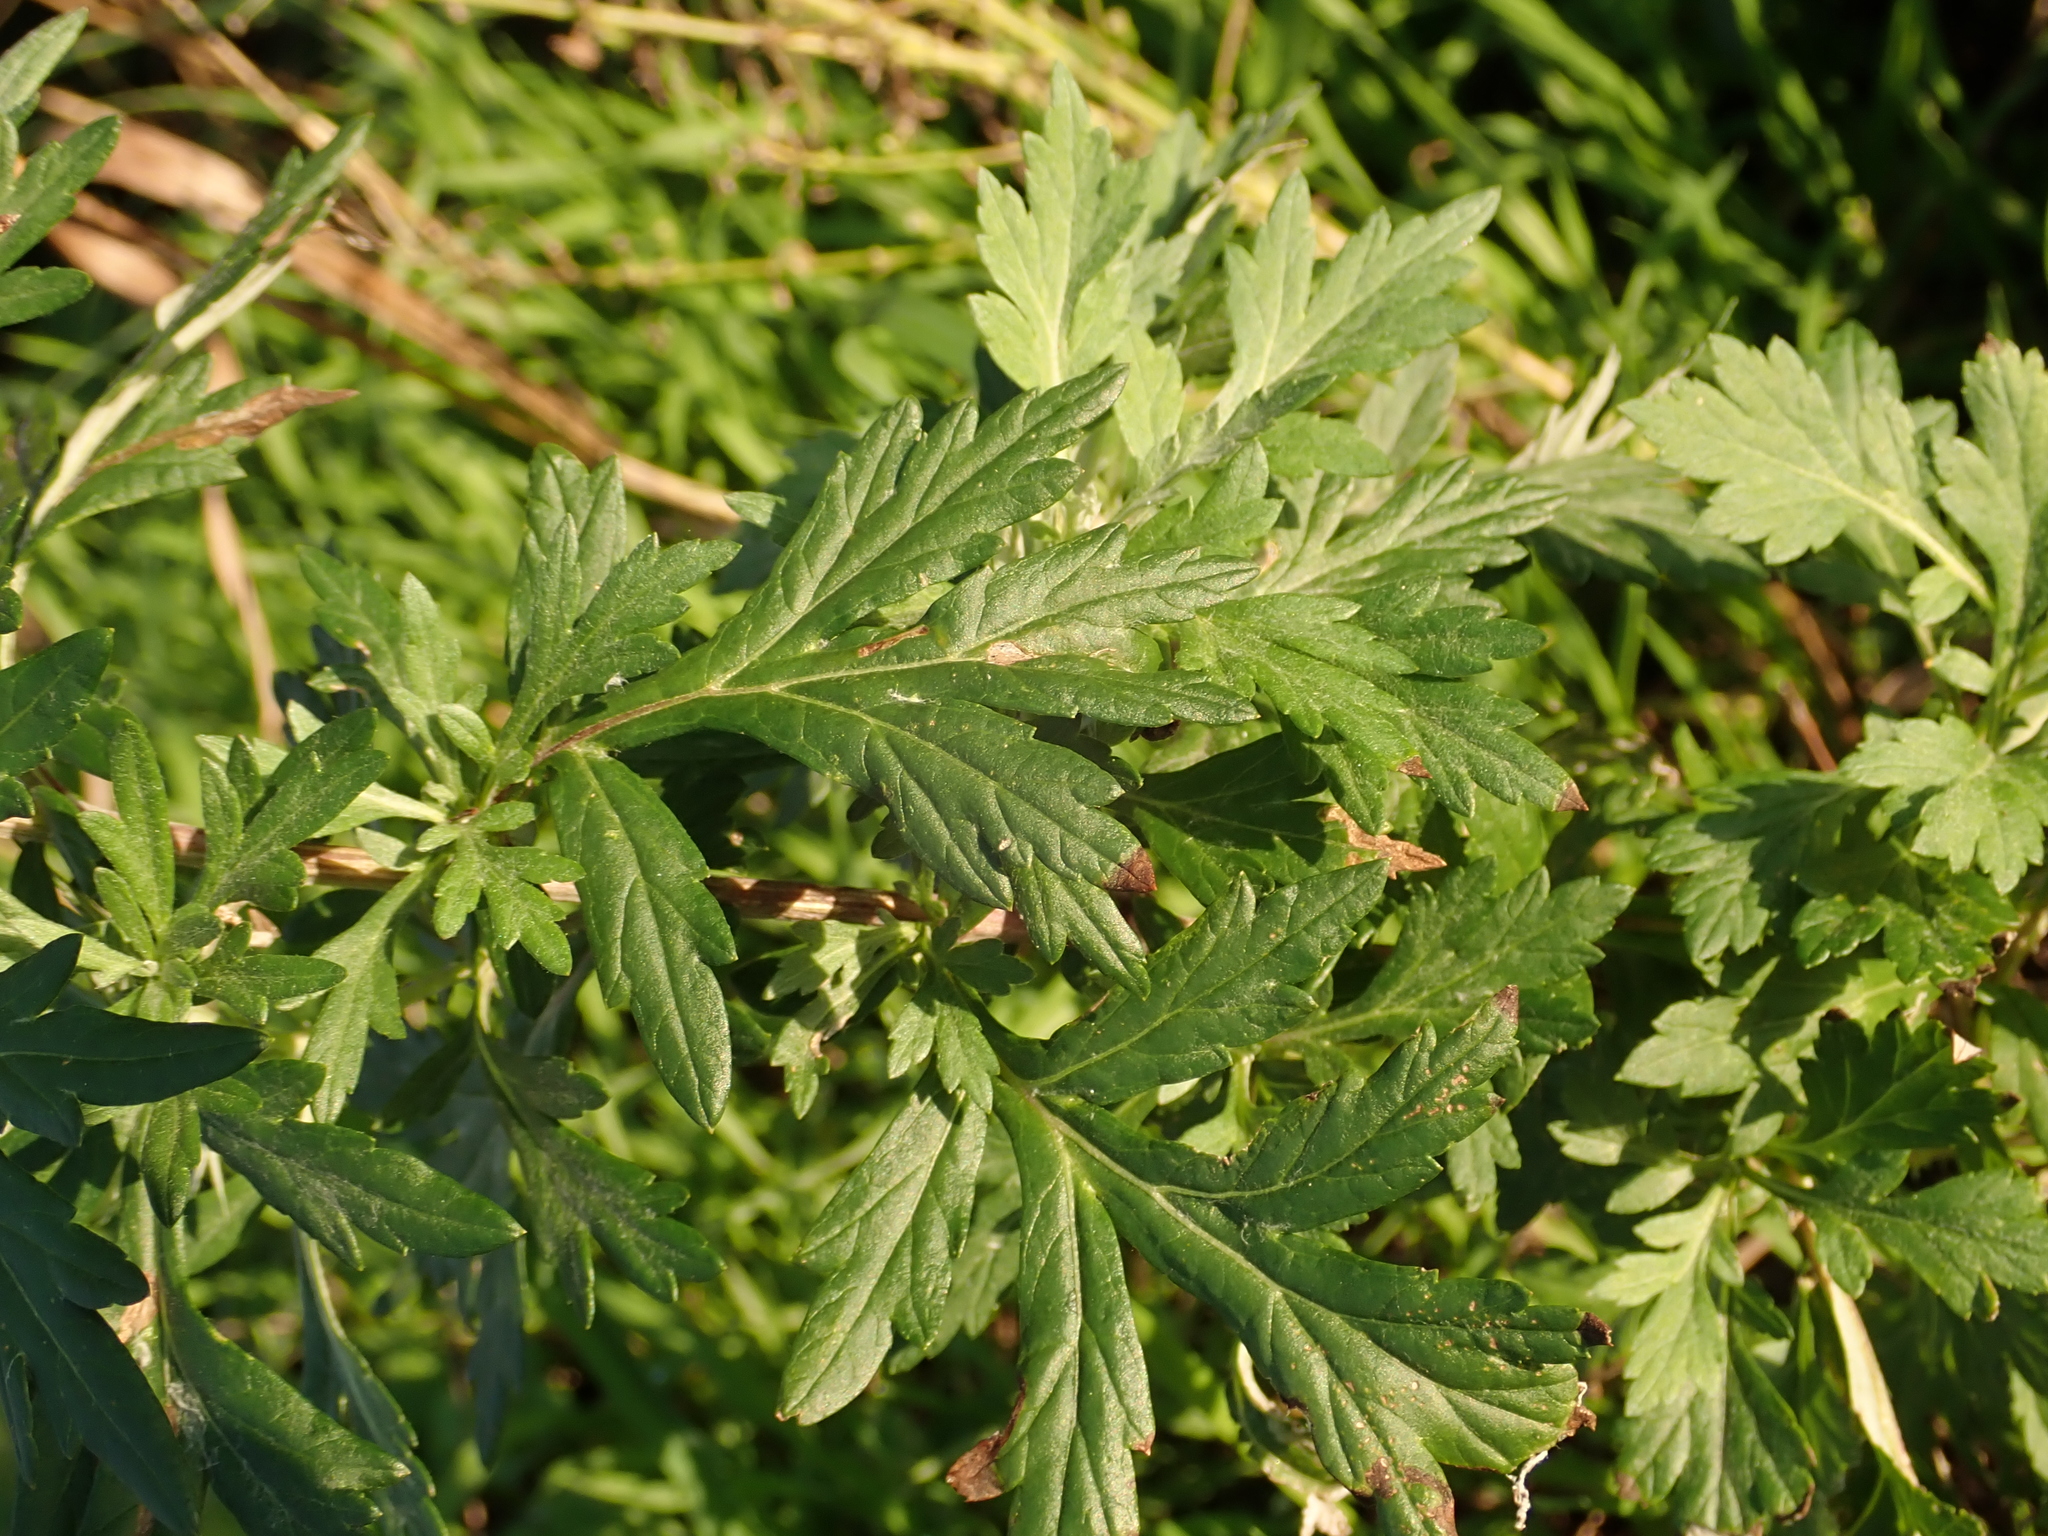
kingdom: Plantae
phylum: Tracheophyta
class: Magnoliopsida
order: Asterales
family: Asteraceae
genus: Artemisia
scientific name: Artemisia vulgaris
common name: Mugwort
